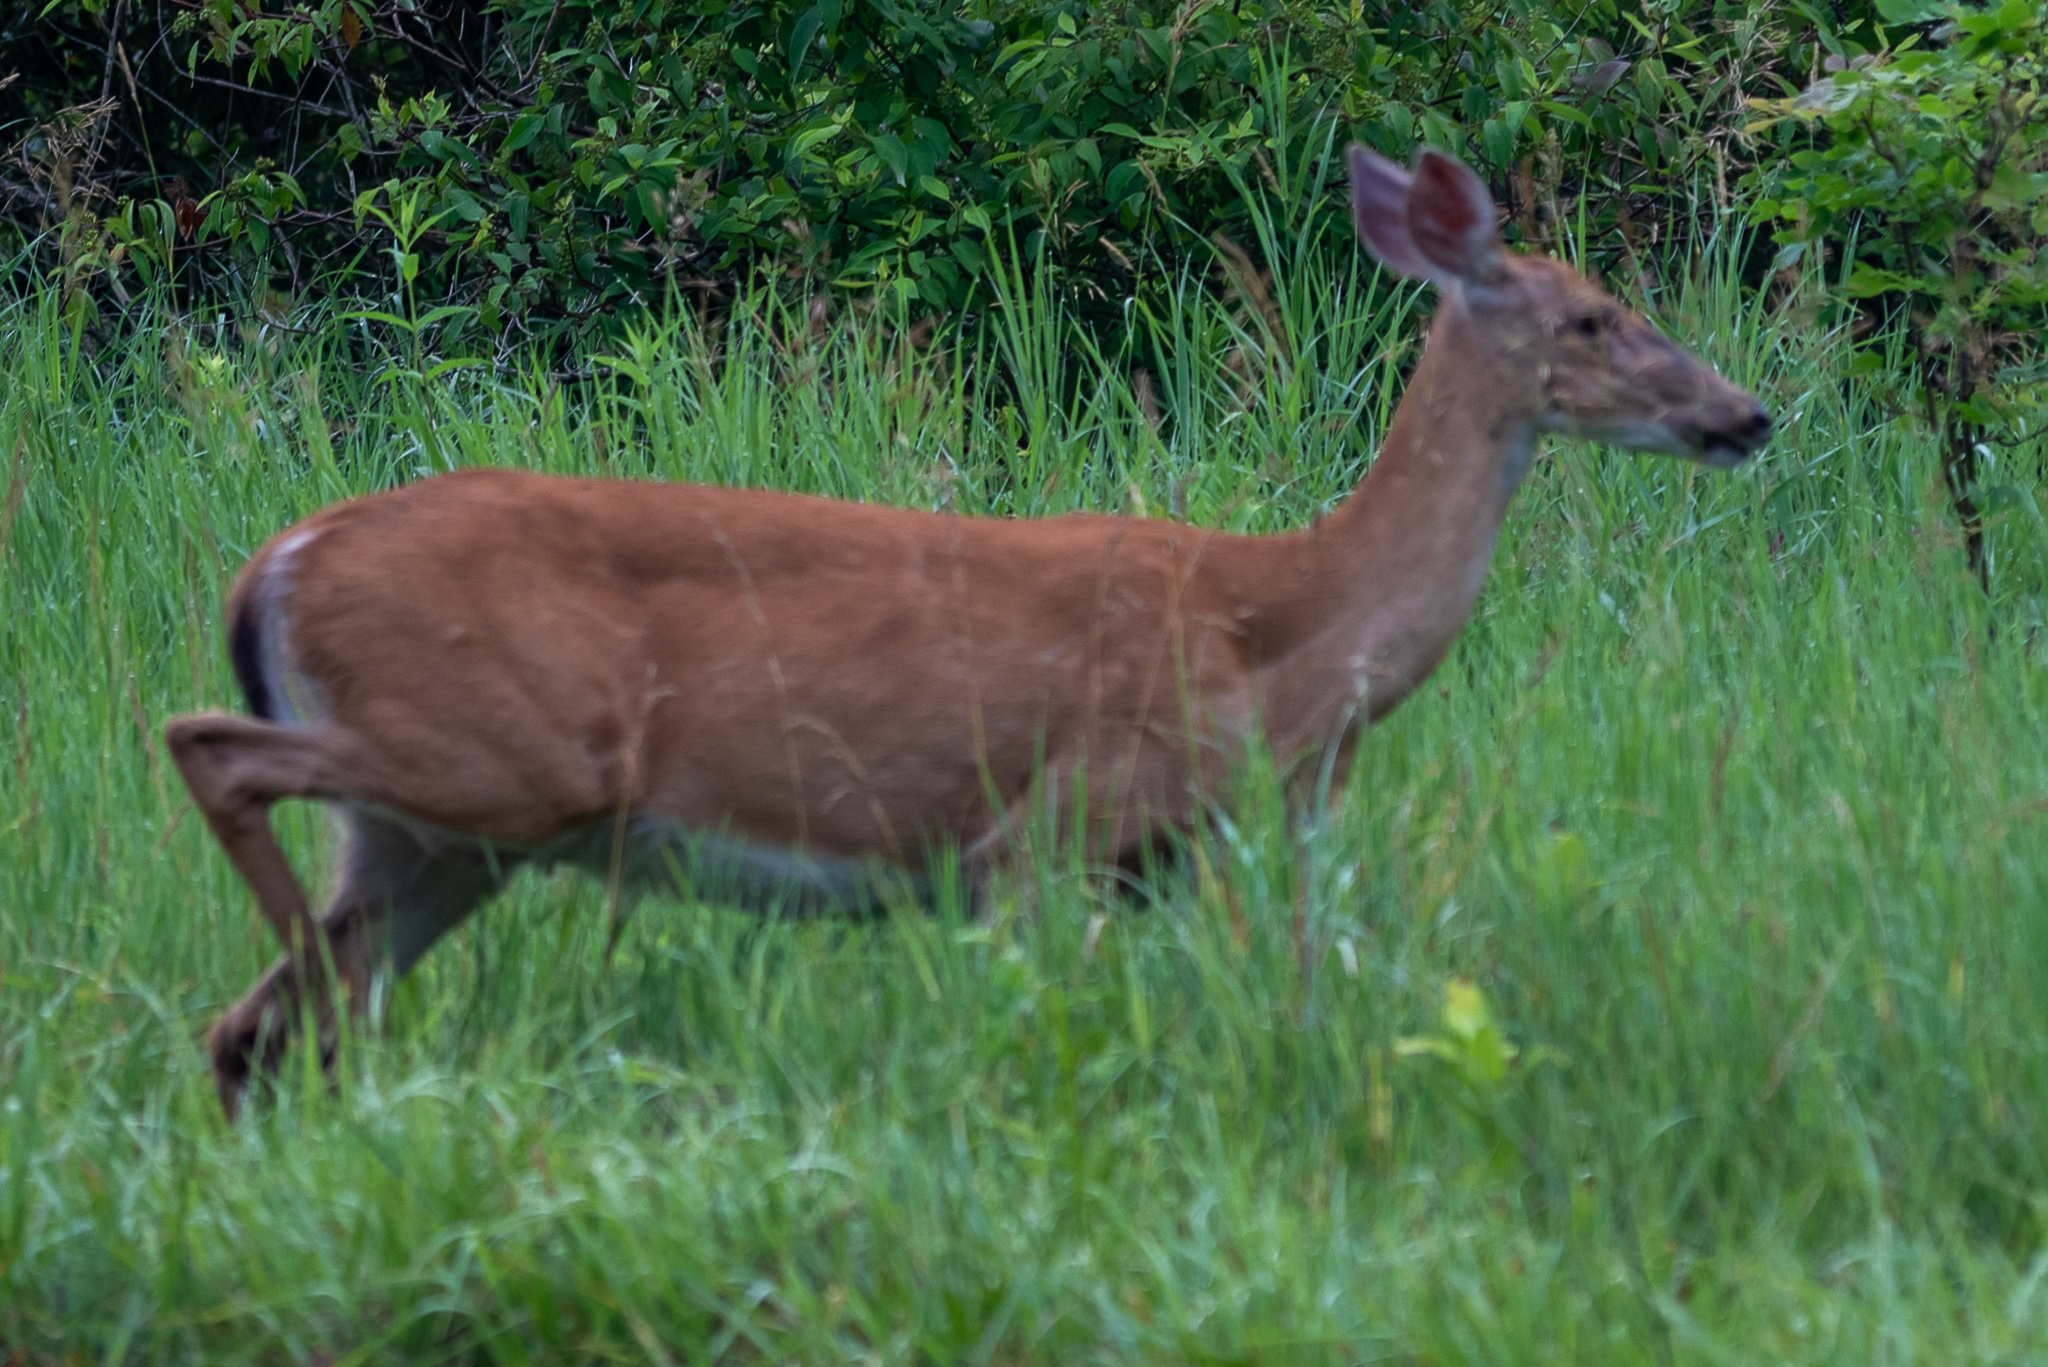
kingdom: Animalia
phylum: Chordata
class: Mammalia
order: Artiodactyla
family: Cervidae
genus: Odocoileus
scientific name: Odocoileus virginianus
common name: White-tailed deer
